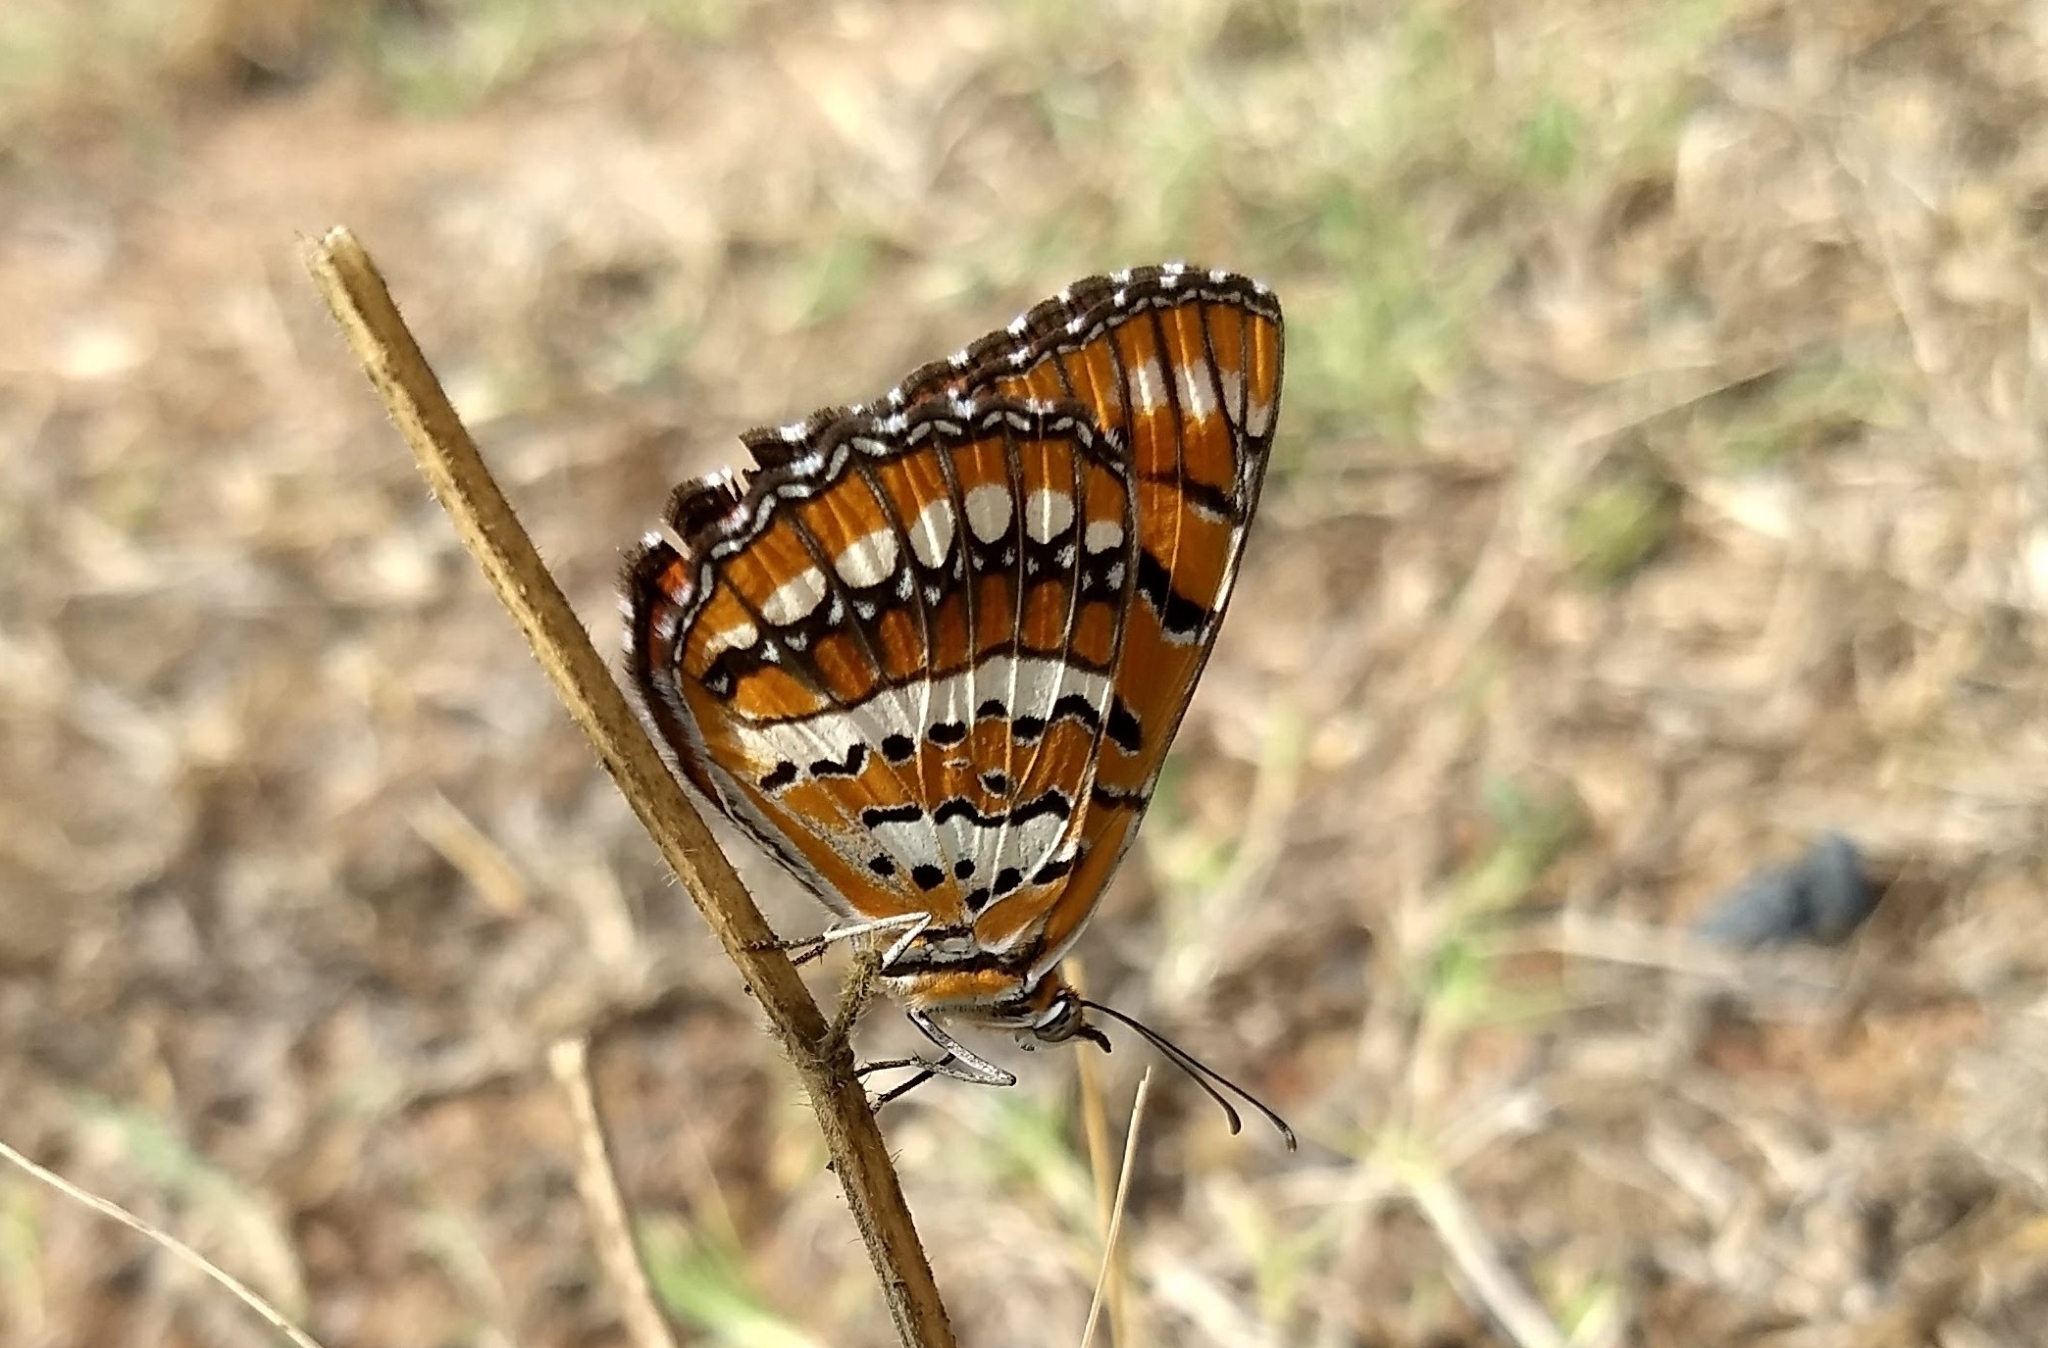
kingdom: Animalia
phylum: Arthropoda
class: Insecta
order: Lepidoptera
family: Nymphalidae
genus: Byblia
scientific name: Byblia ilithyia
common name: Spotted joker
